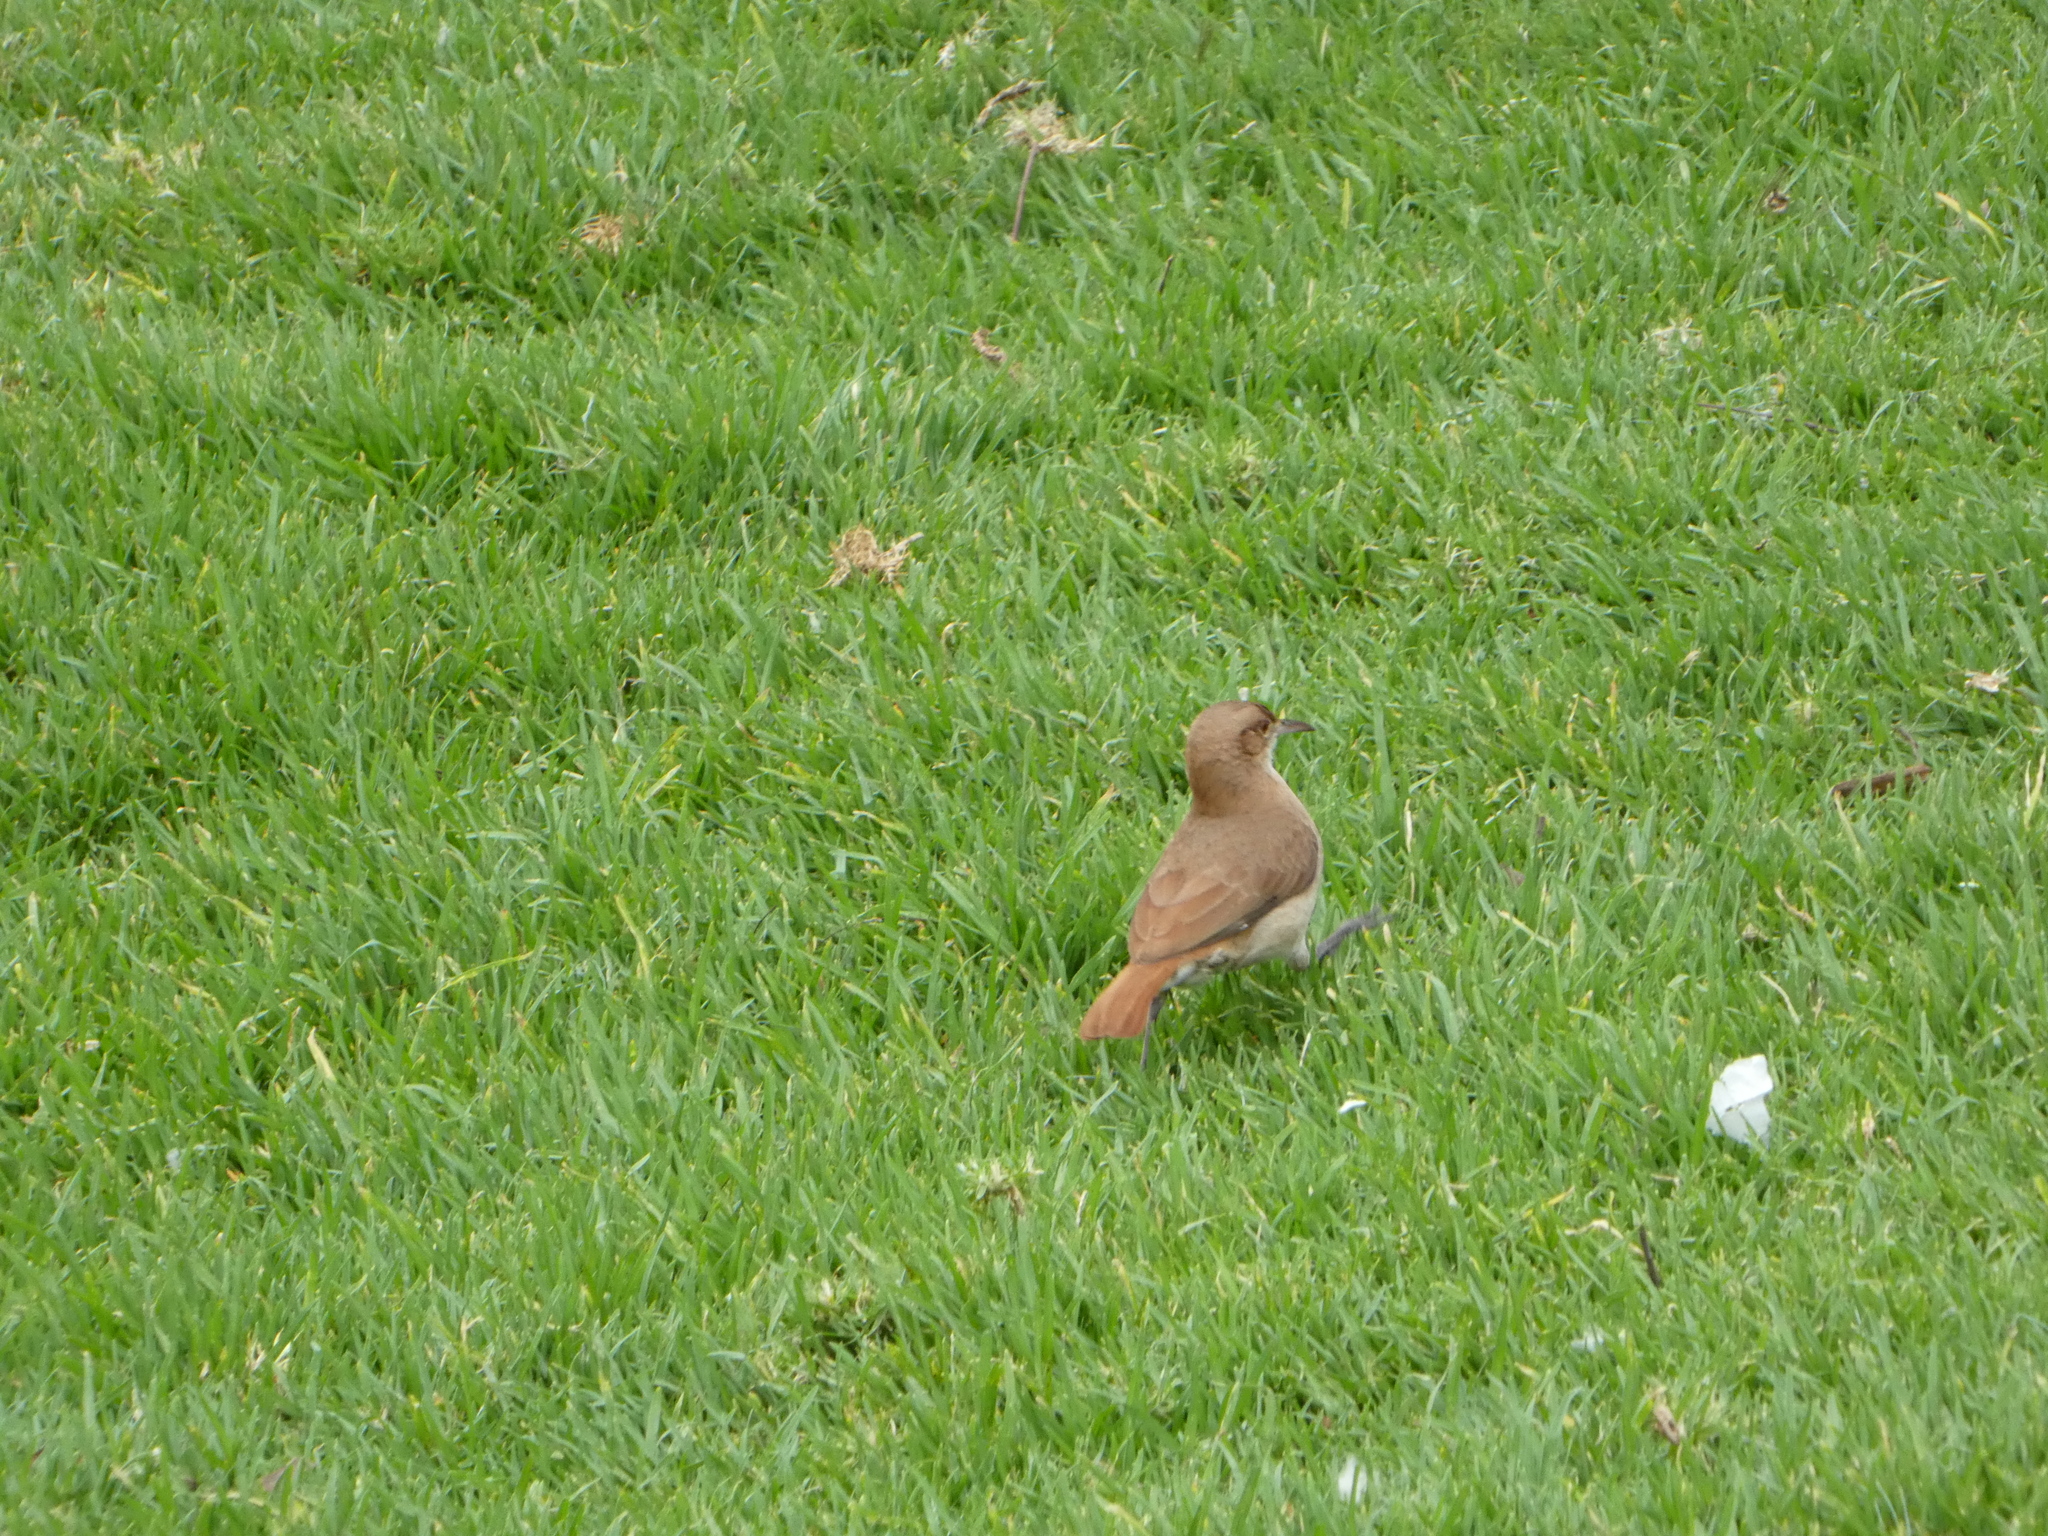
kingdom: Animalia
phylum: Chordata
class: Aves
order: Passeriformes
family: Furnariidae
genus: Furnarius
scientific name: Furnarius rufus
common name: Rufous hornero
